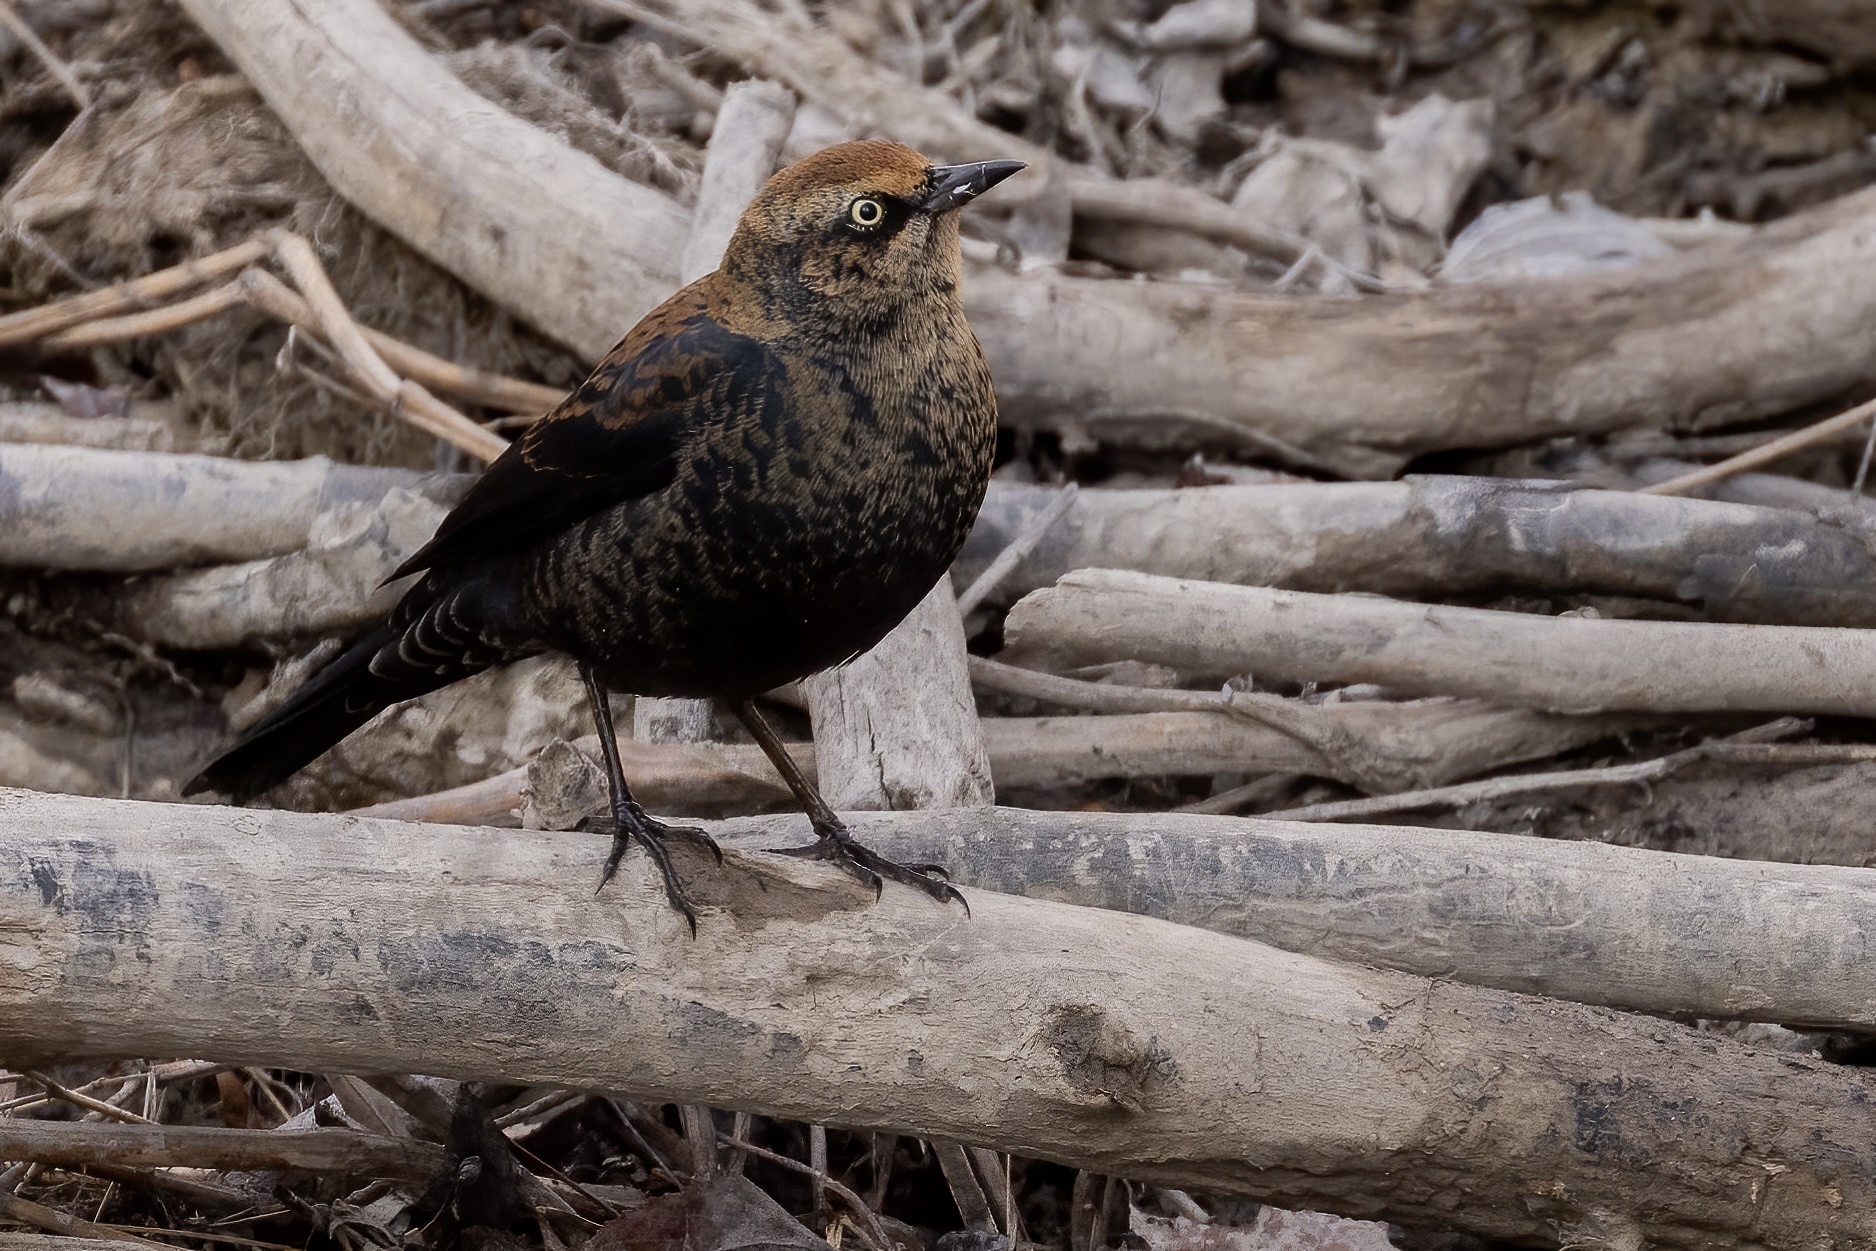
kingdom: Animalia
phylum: Chordata
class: Aves
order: Passeriformes
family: Icteridae
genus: Euphagus
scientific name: Euphagus carolinus
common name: Rusty blackbird
